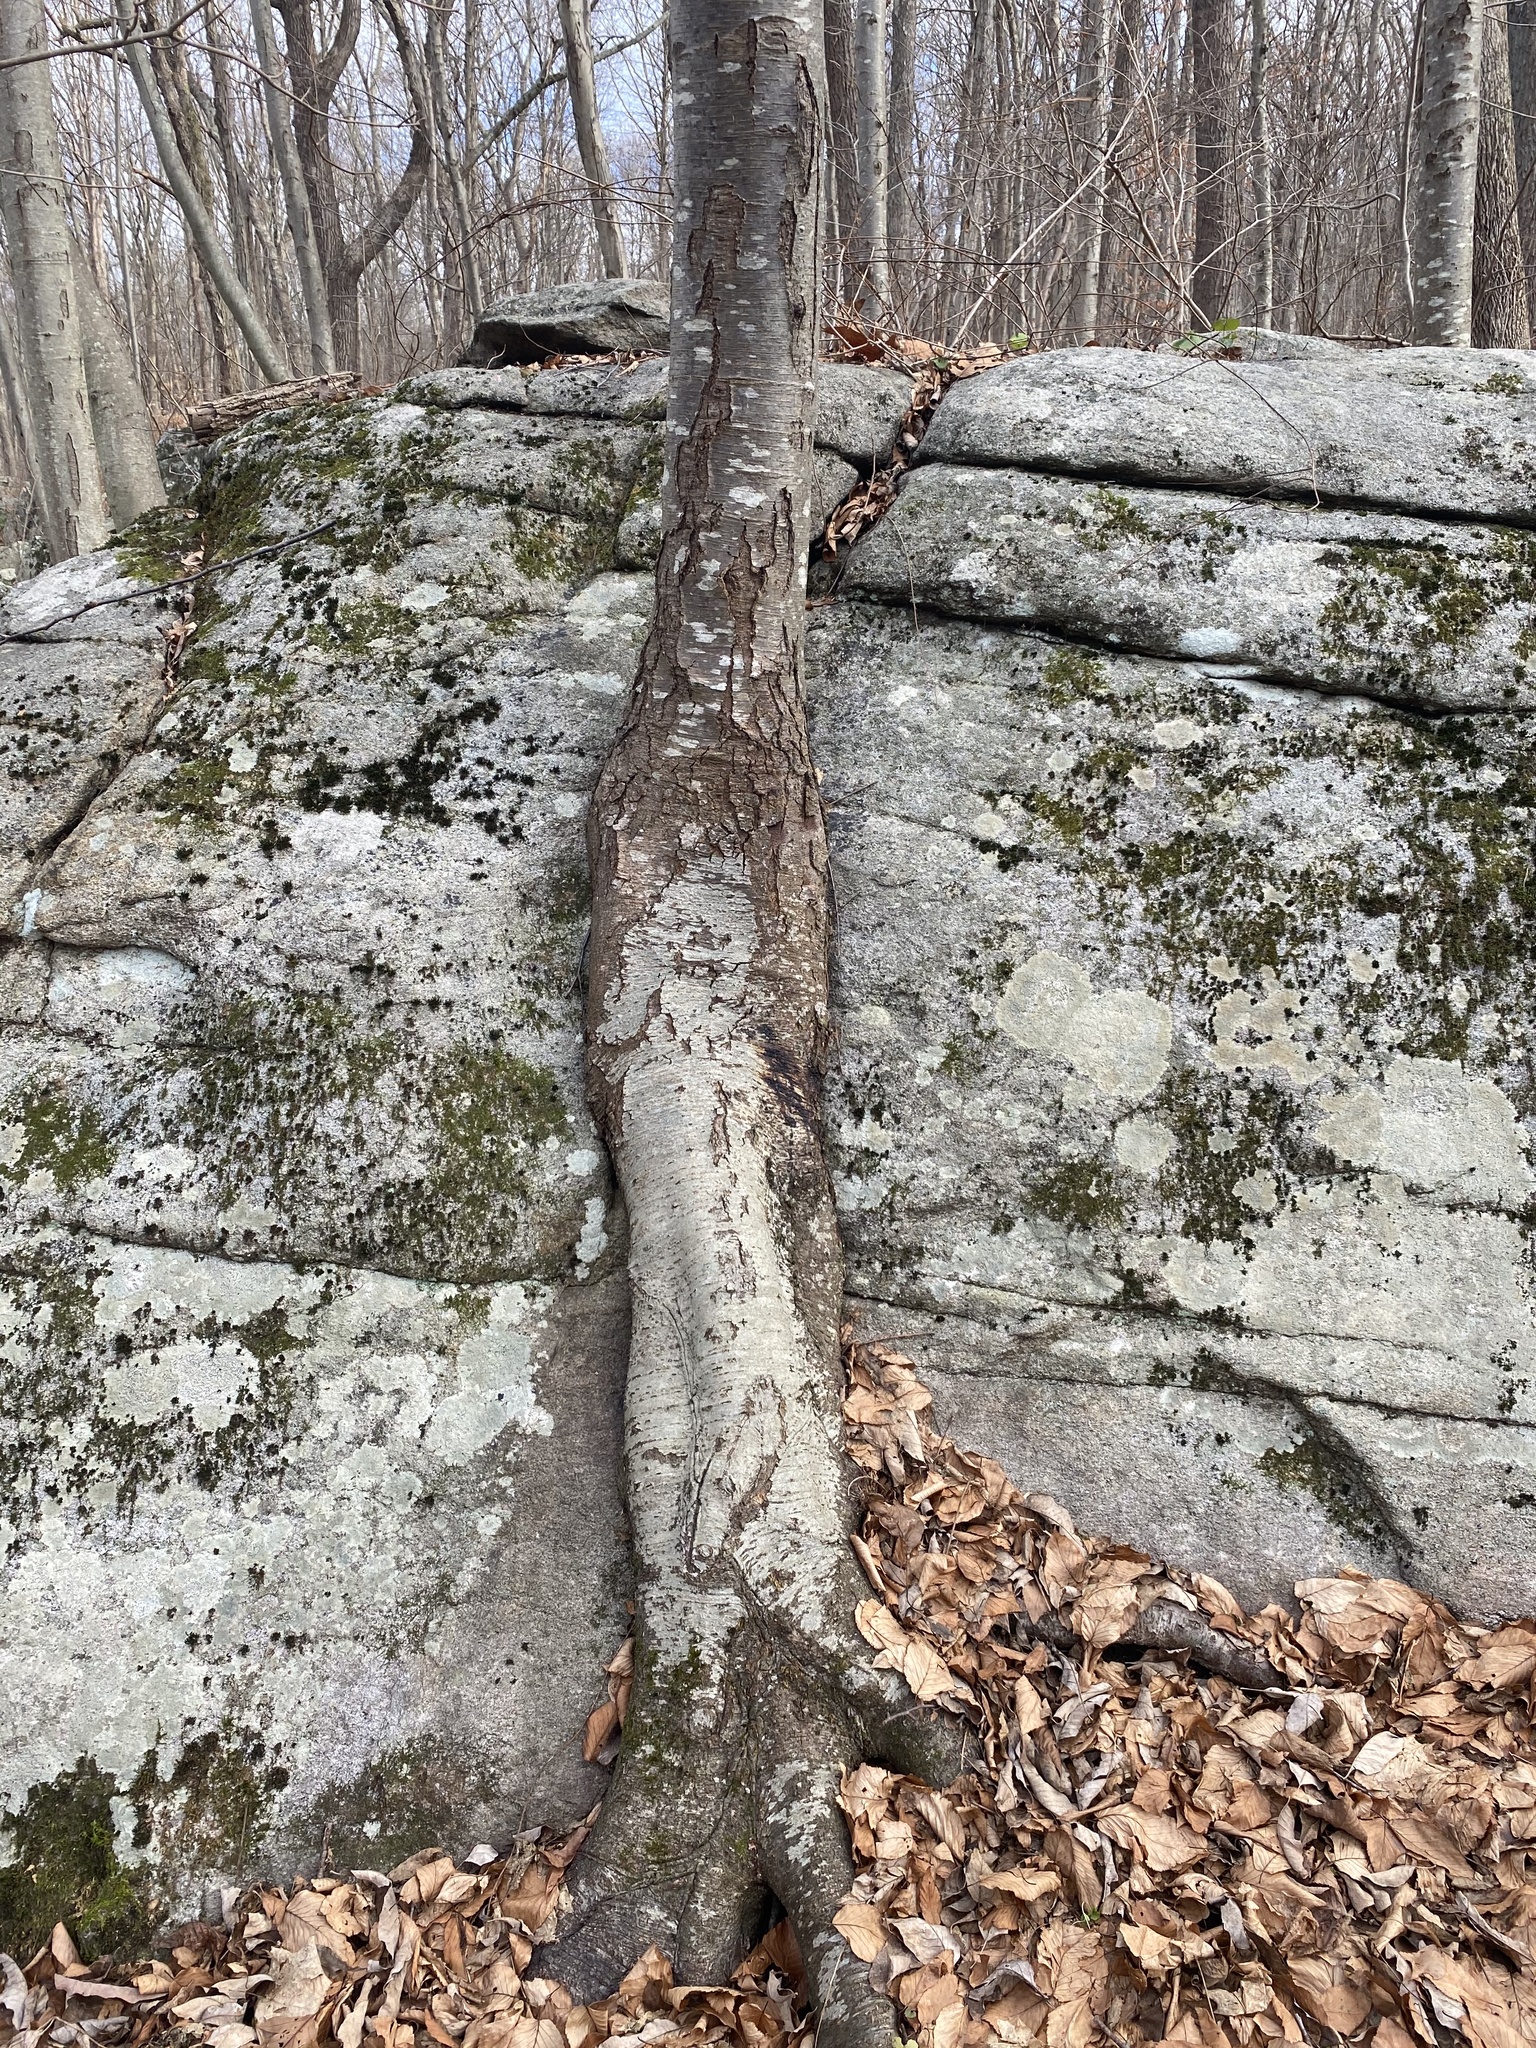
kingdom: Plantae
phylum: Tracheophyta
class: Magnoliopsida
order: Fagales
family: Betulaceae
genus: Betula
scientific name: Betula lenta
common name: Black birch
